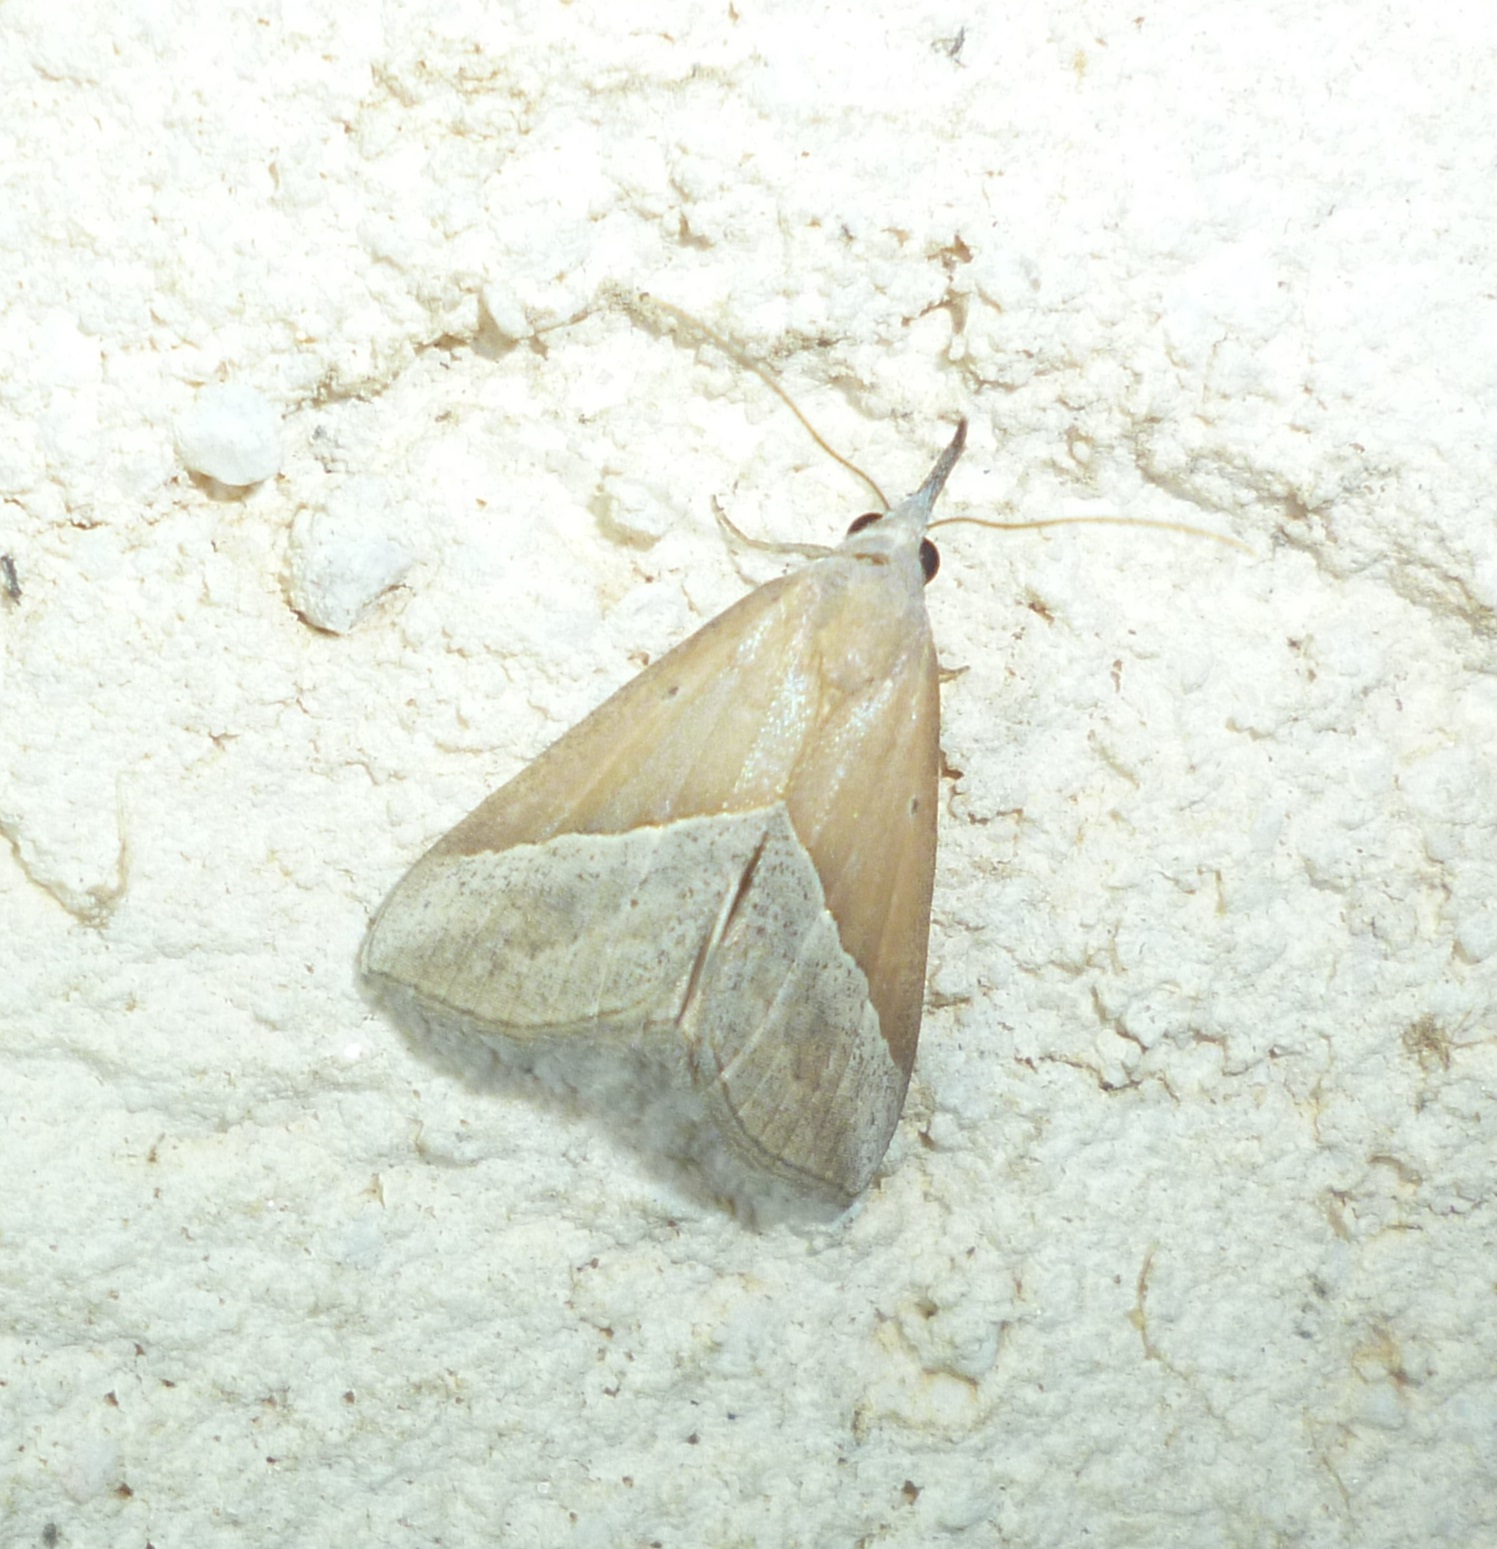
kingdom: Animalia
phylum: Arthropoda
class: Insecta
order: Lepidoptera
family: Erebidae
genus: Hypena
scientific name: Hypena lividalis
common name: Chevron snout
